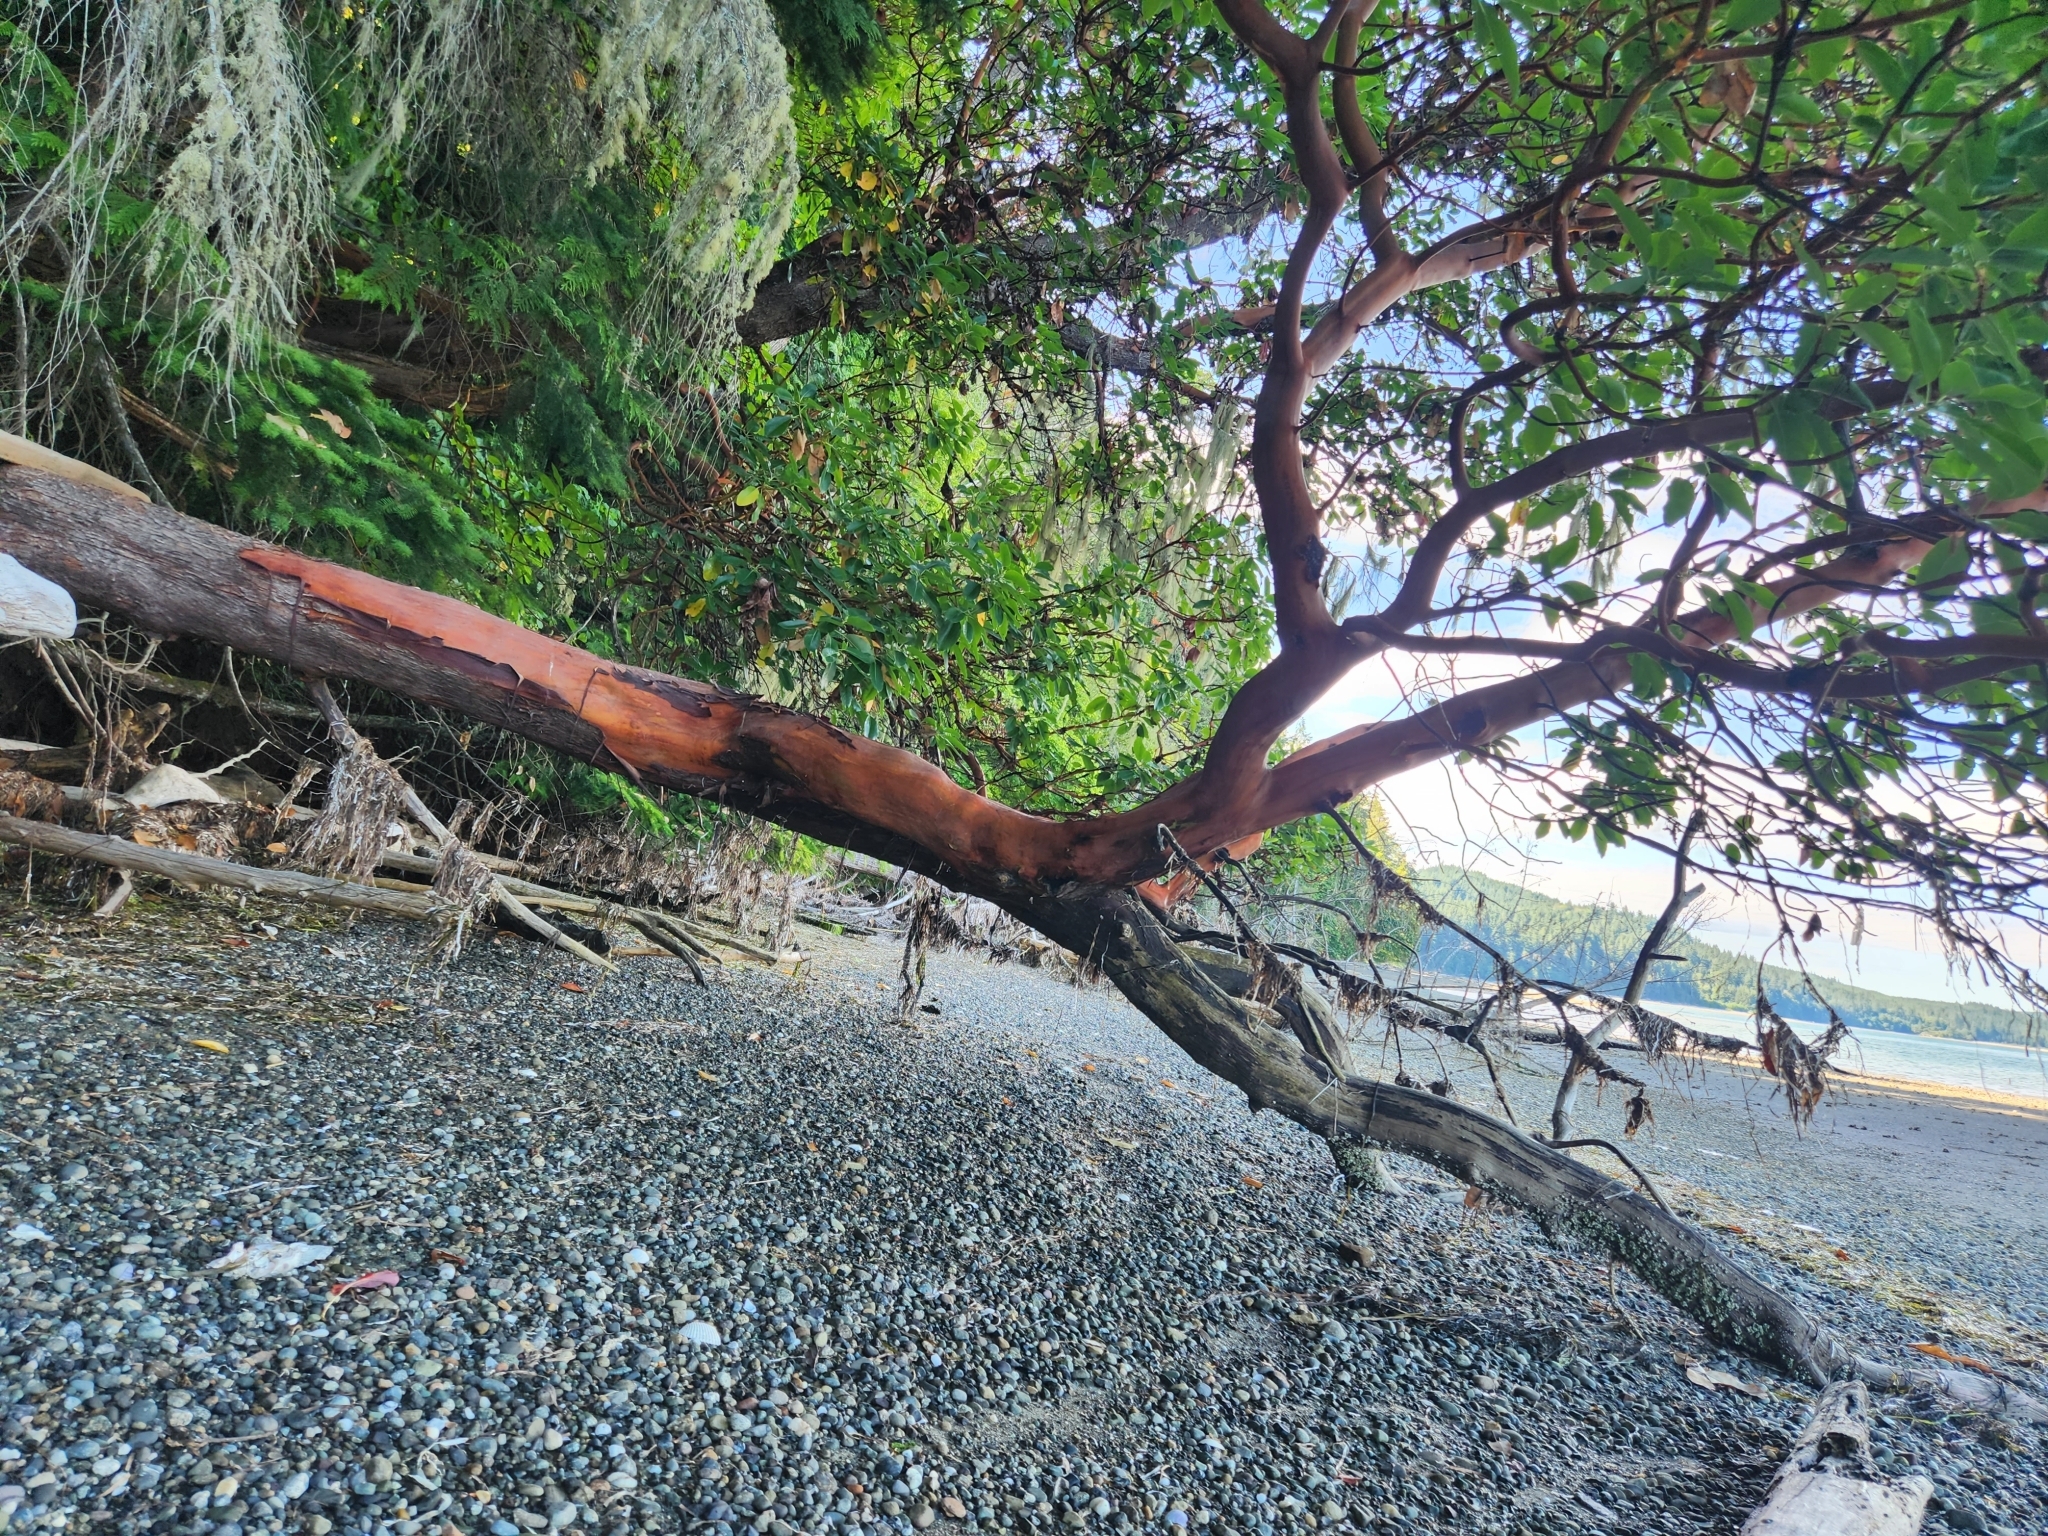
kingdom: Plantae
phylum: Tracheophyta
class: Magnoliopsida
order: Ericales
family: Ericaceae
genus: Arbutus
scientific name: Arbutus menziesii
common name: Pacific madrone
